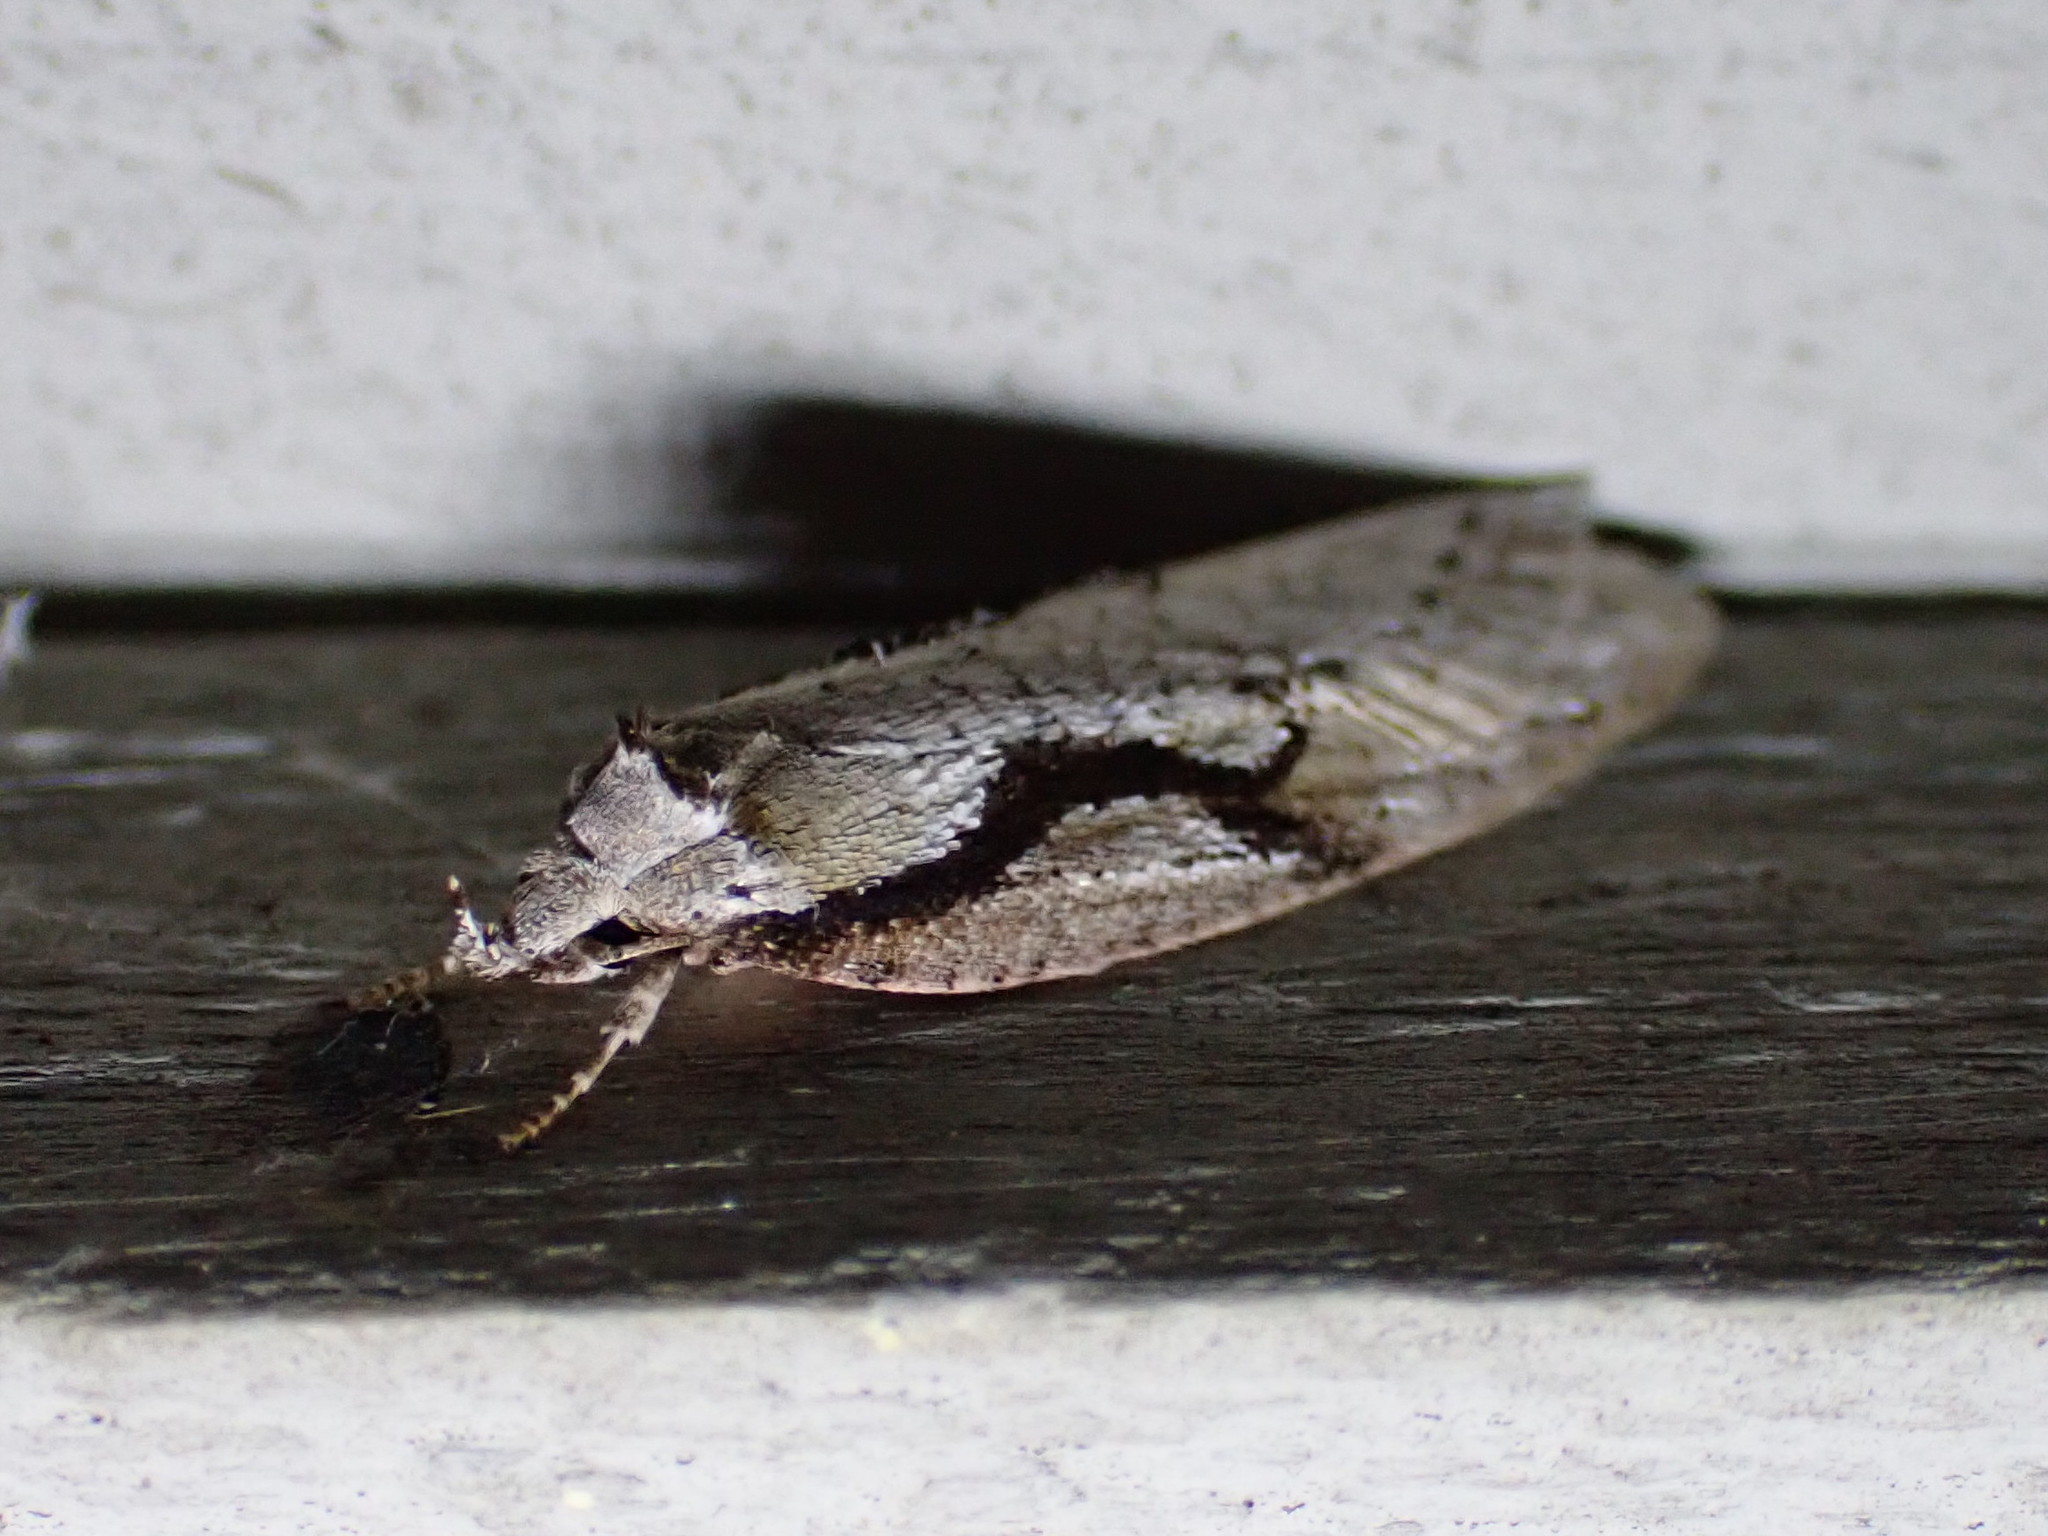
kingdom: Animalia
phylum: Arthropoda
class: Insecta
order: Lepidoptera
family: Depressariidae
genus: Semioscopis
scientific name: Semioscopis packardella
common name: Packard's concealer moth
